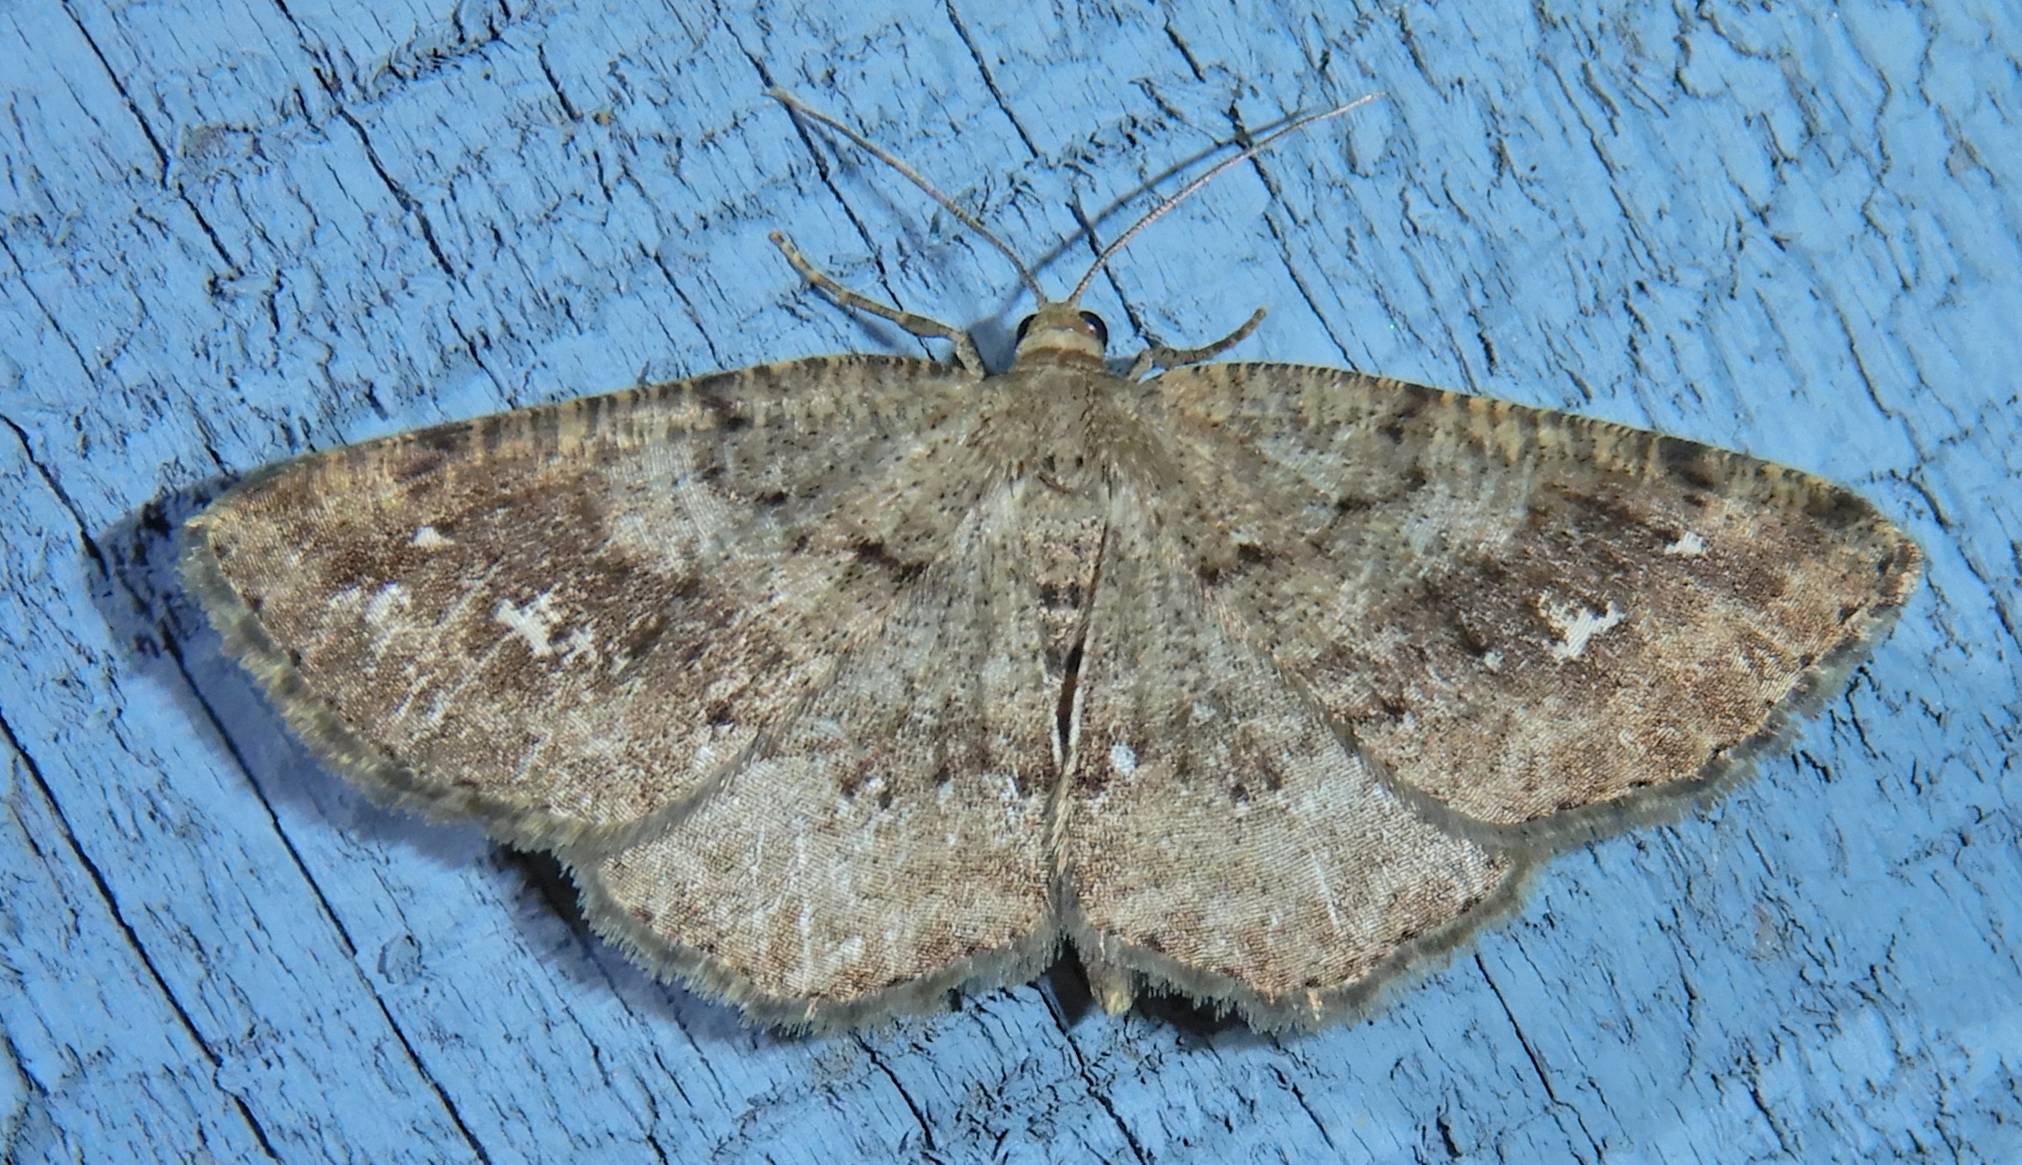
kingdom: Animalia
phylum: Arthropoda
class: Insecta
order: Lepidoptera
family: Geometridae
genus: Homochlodes
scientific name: Homochlodes fritillaria
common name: Pale homochlodes
